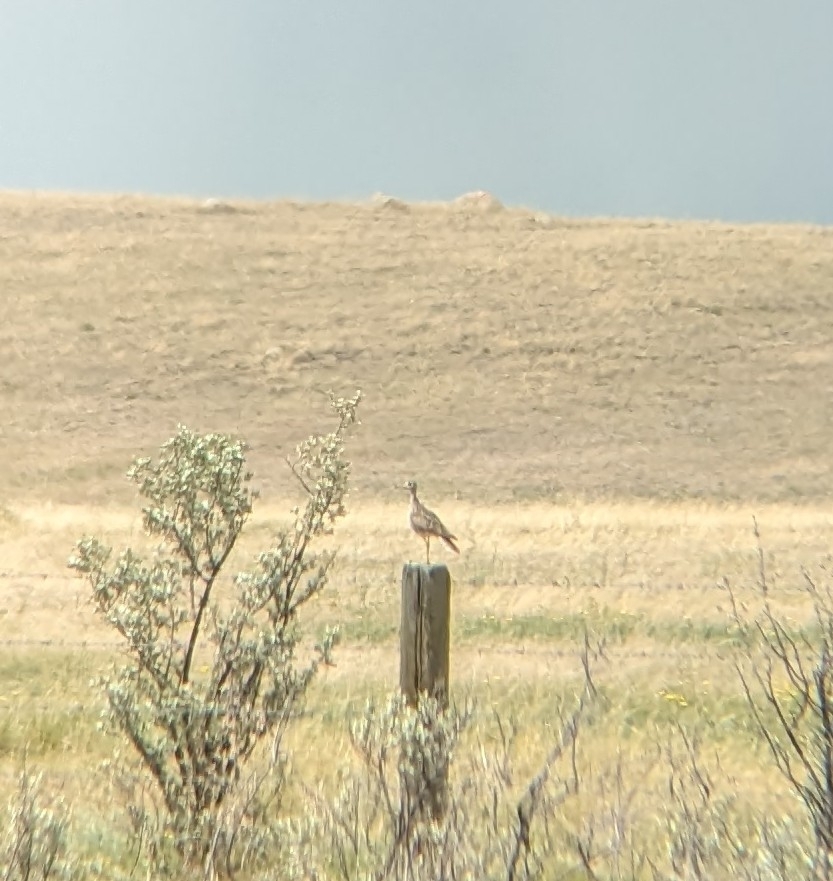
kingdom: Animalia
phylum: Chordata
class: Aves
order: Charadriiformes
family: Scolopacidae
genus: Bartramia
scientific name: Bartramia longicauda
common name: Upland sandpiper
